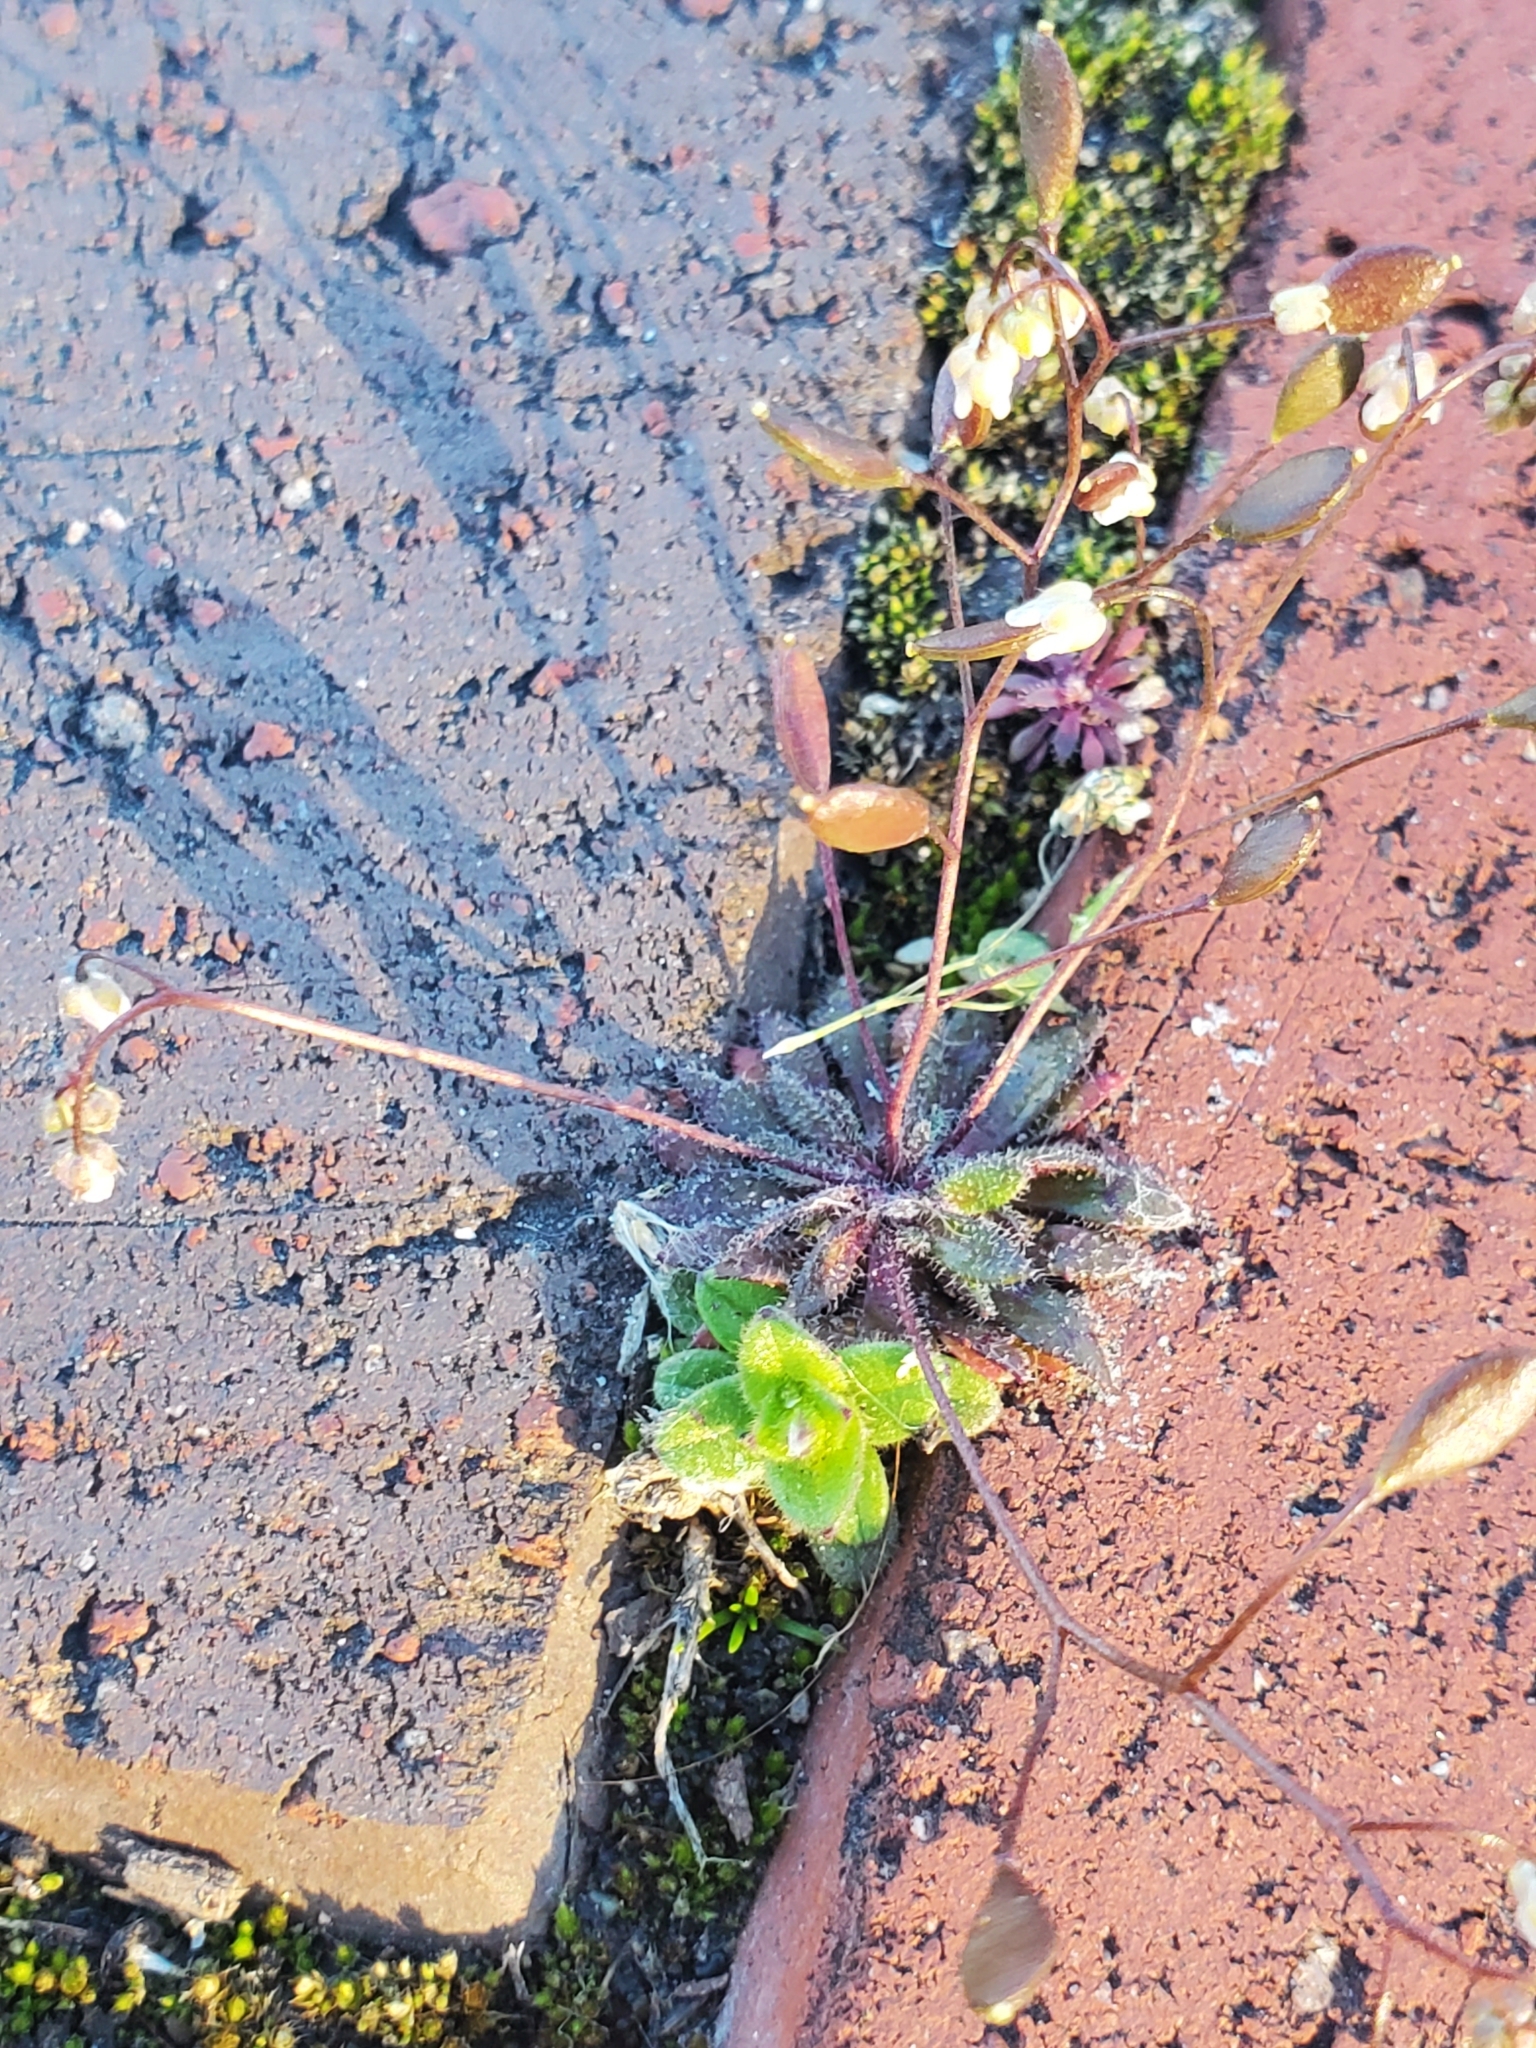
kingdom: Plantae
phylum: Tracheophyta
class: Magnoliopsida
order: Brassicales
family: Brassicaceae
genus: Draba
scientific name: Draba verna
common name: Spring draba
